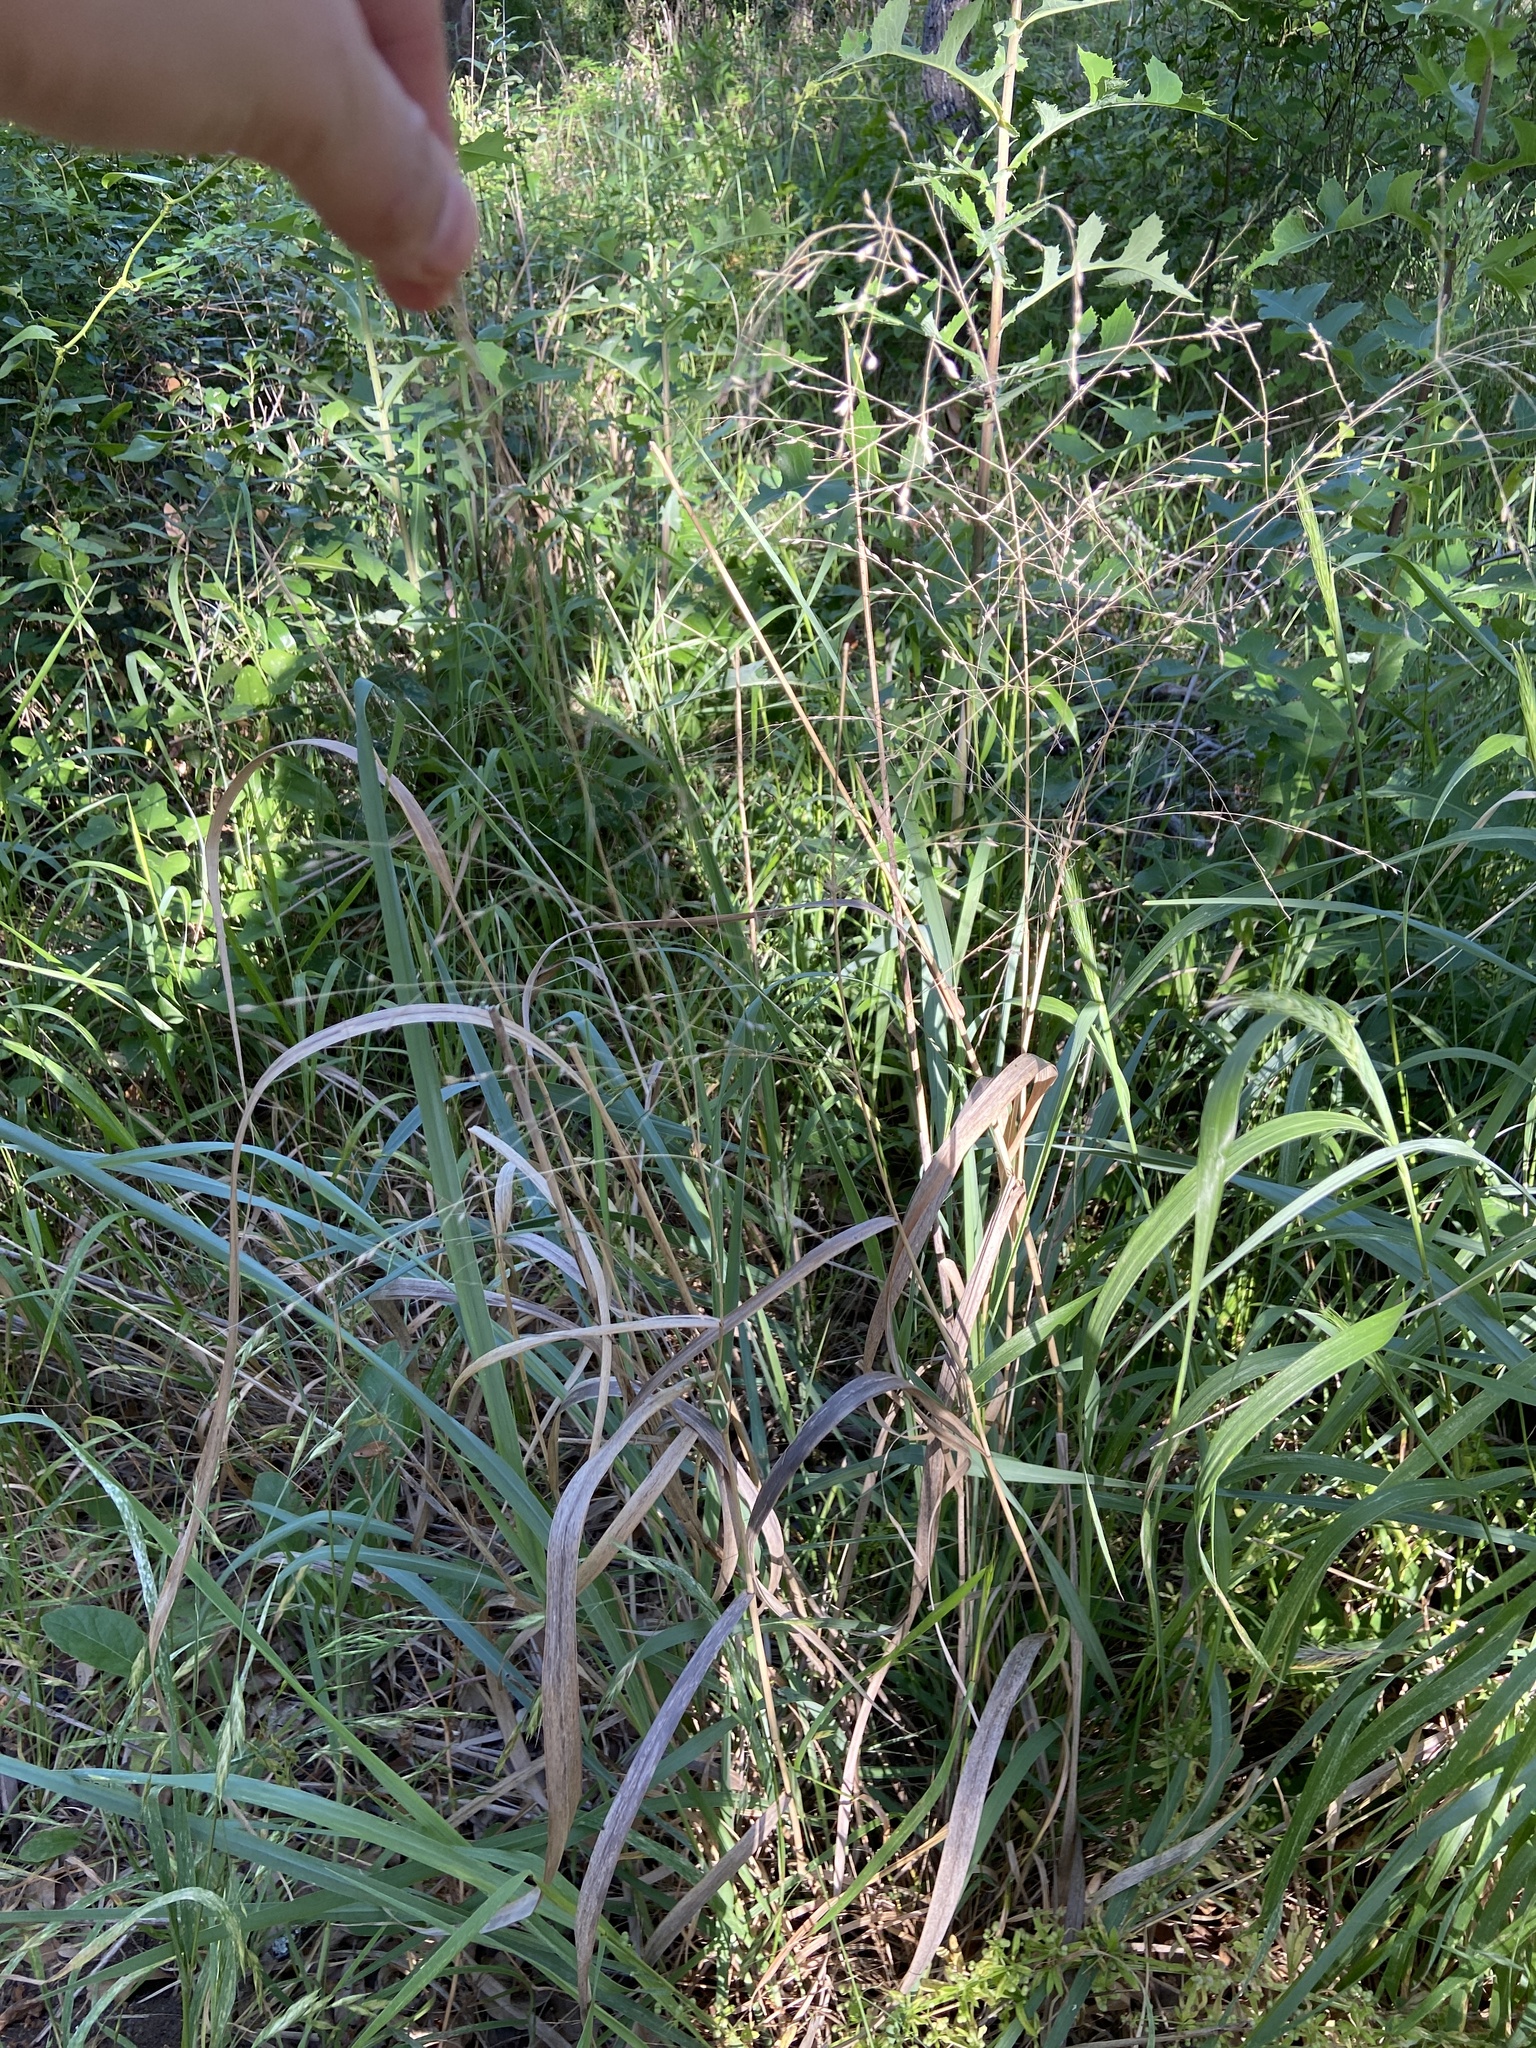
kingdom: Plantae
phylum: Tracheophyta
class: Liliopsida
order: Poales
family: Poaceae
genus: Panicum
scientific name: Panicum virgatum
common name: Switchgrass
